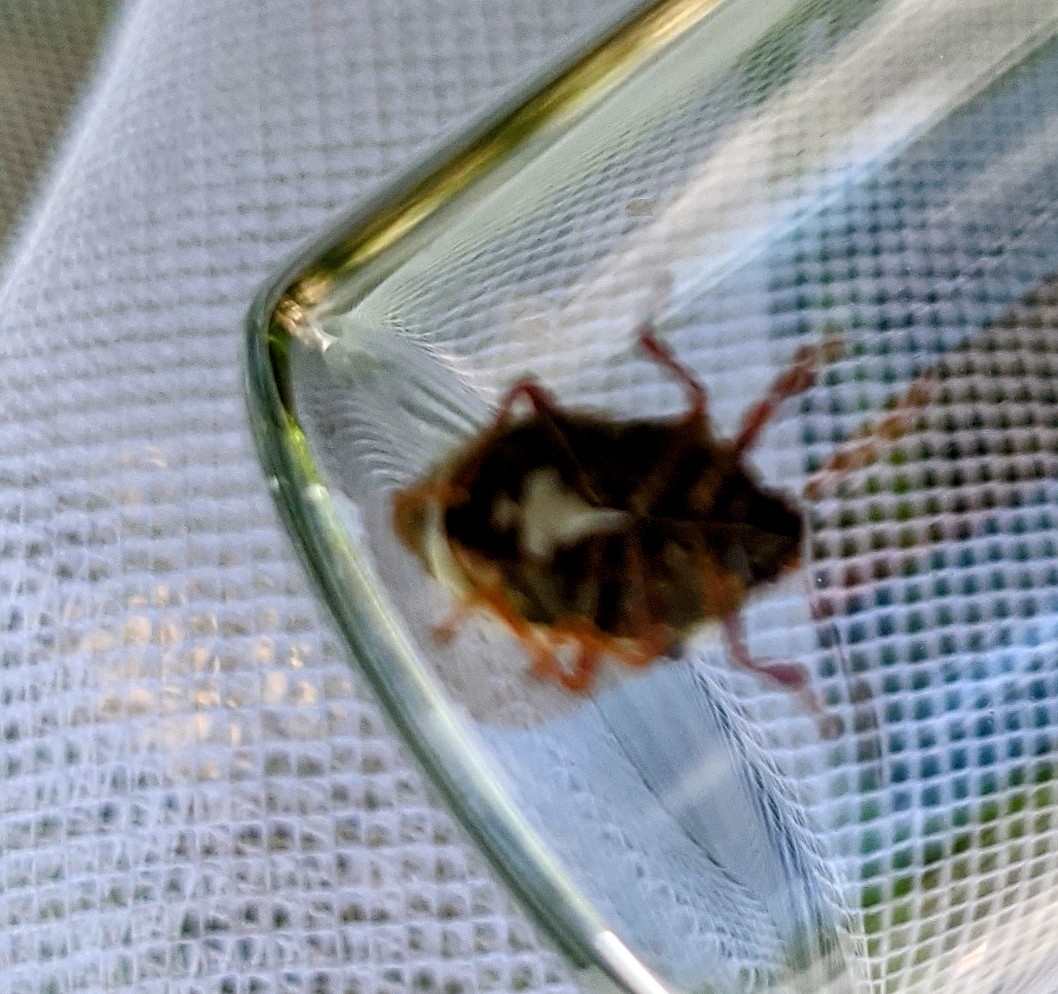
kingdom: Animalia
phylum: Arthropoda
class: Insecta
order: Hemiptera
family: Pentatomidae
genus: Stiretrus
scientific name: Stiretrus anchorago
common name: Anchor stink bug
